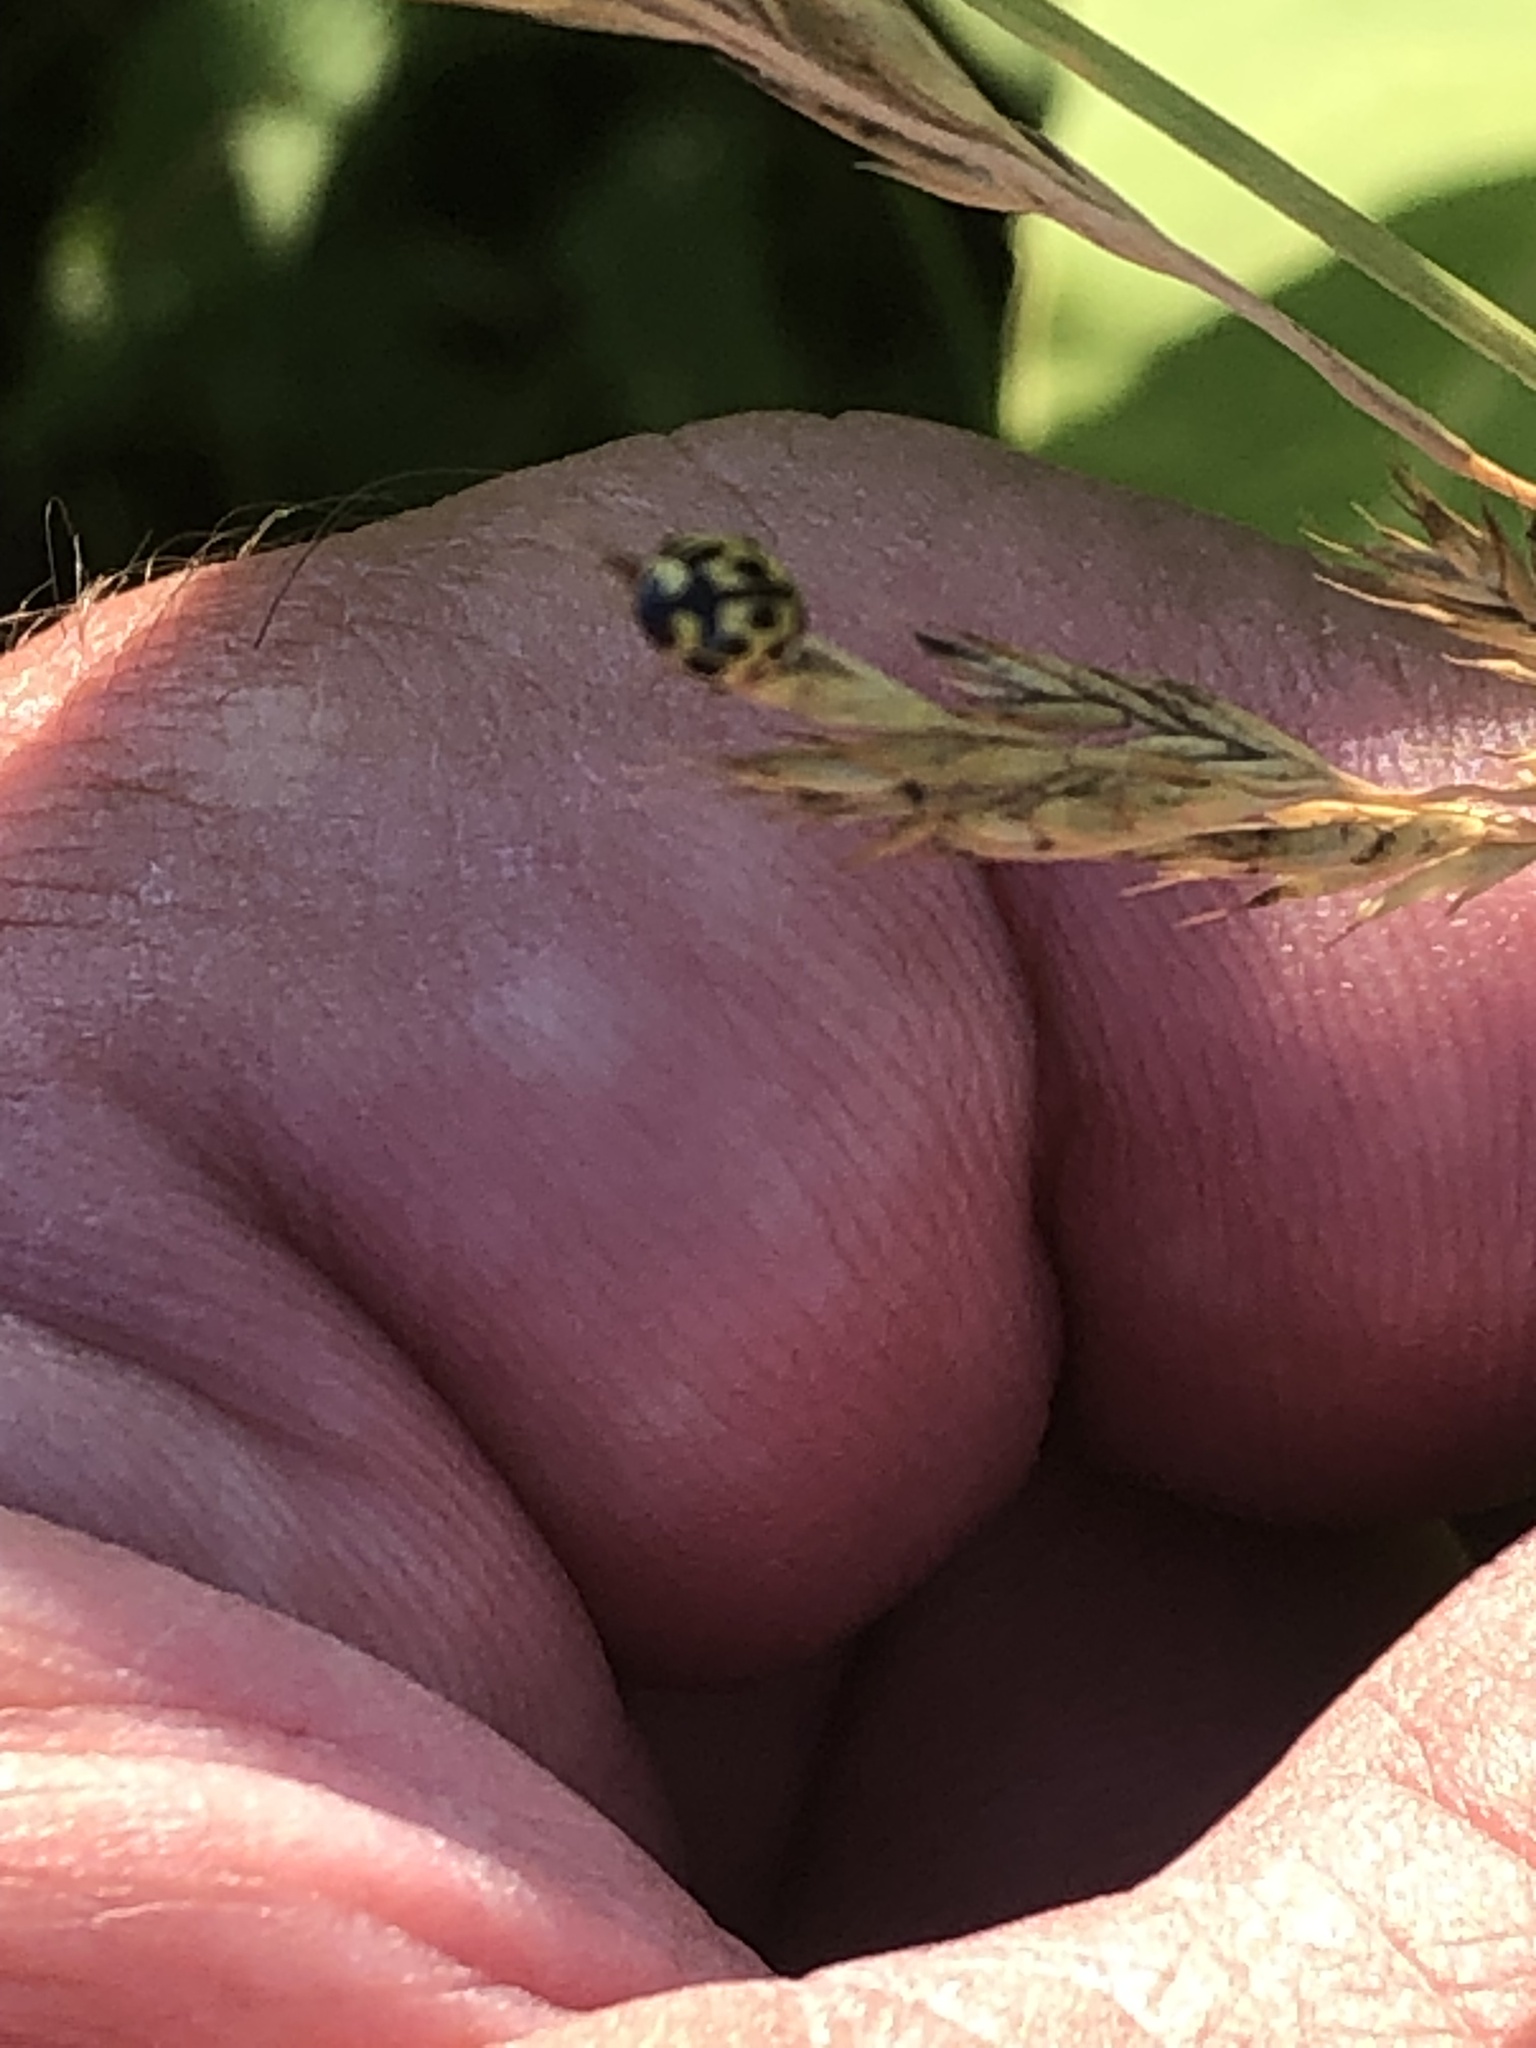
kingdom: Animalia
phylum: Arthropoda
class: Insecta
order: Coleoptera
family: Coccinellidae
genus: Propylaea
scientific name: Propylaea quatuordecimpunctata
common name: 14-spotted ladybird beetle
